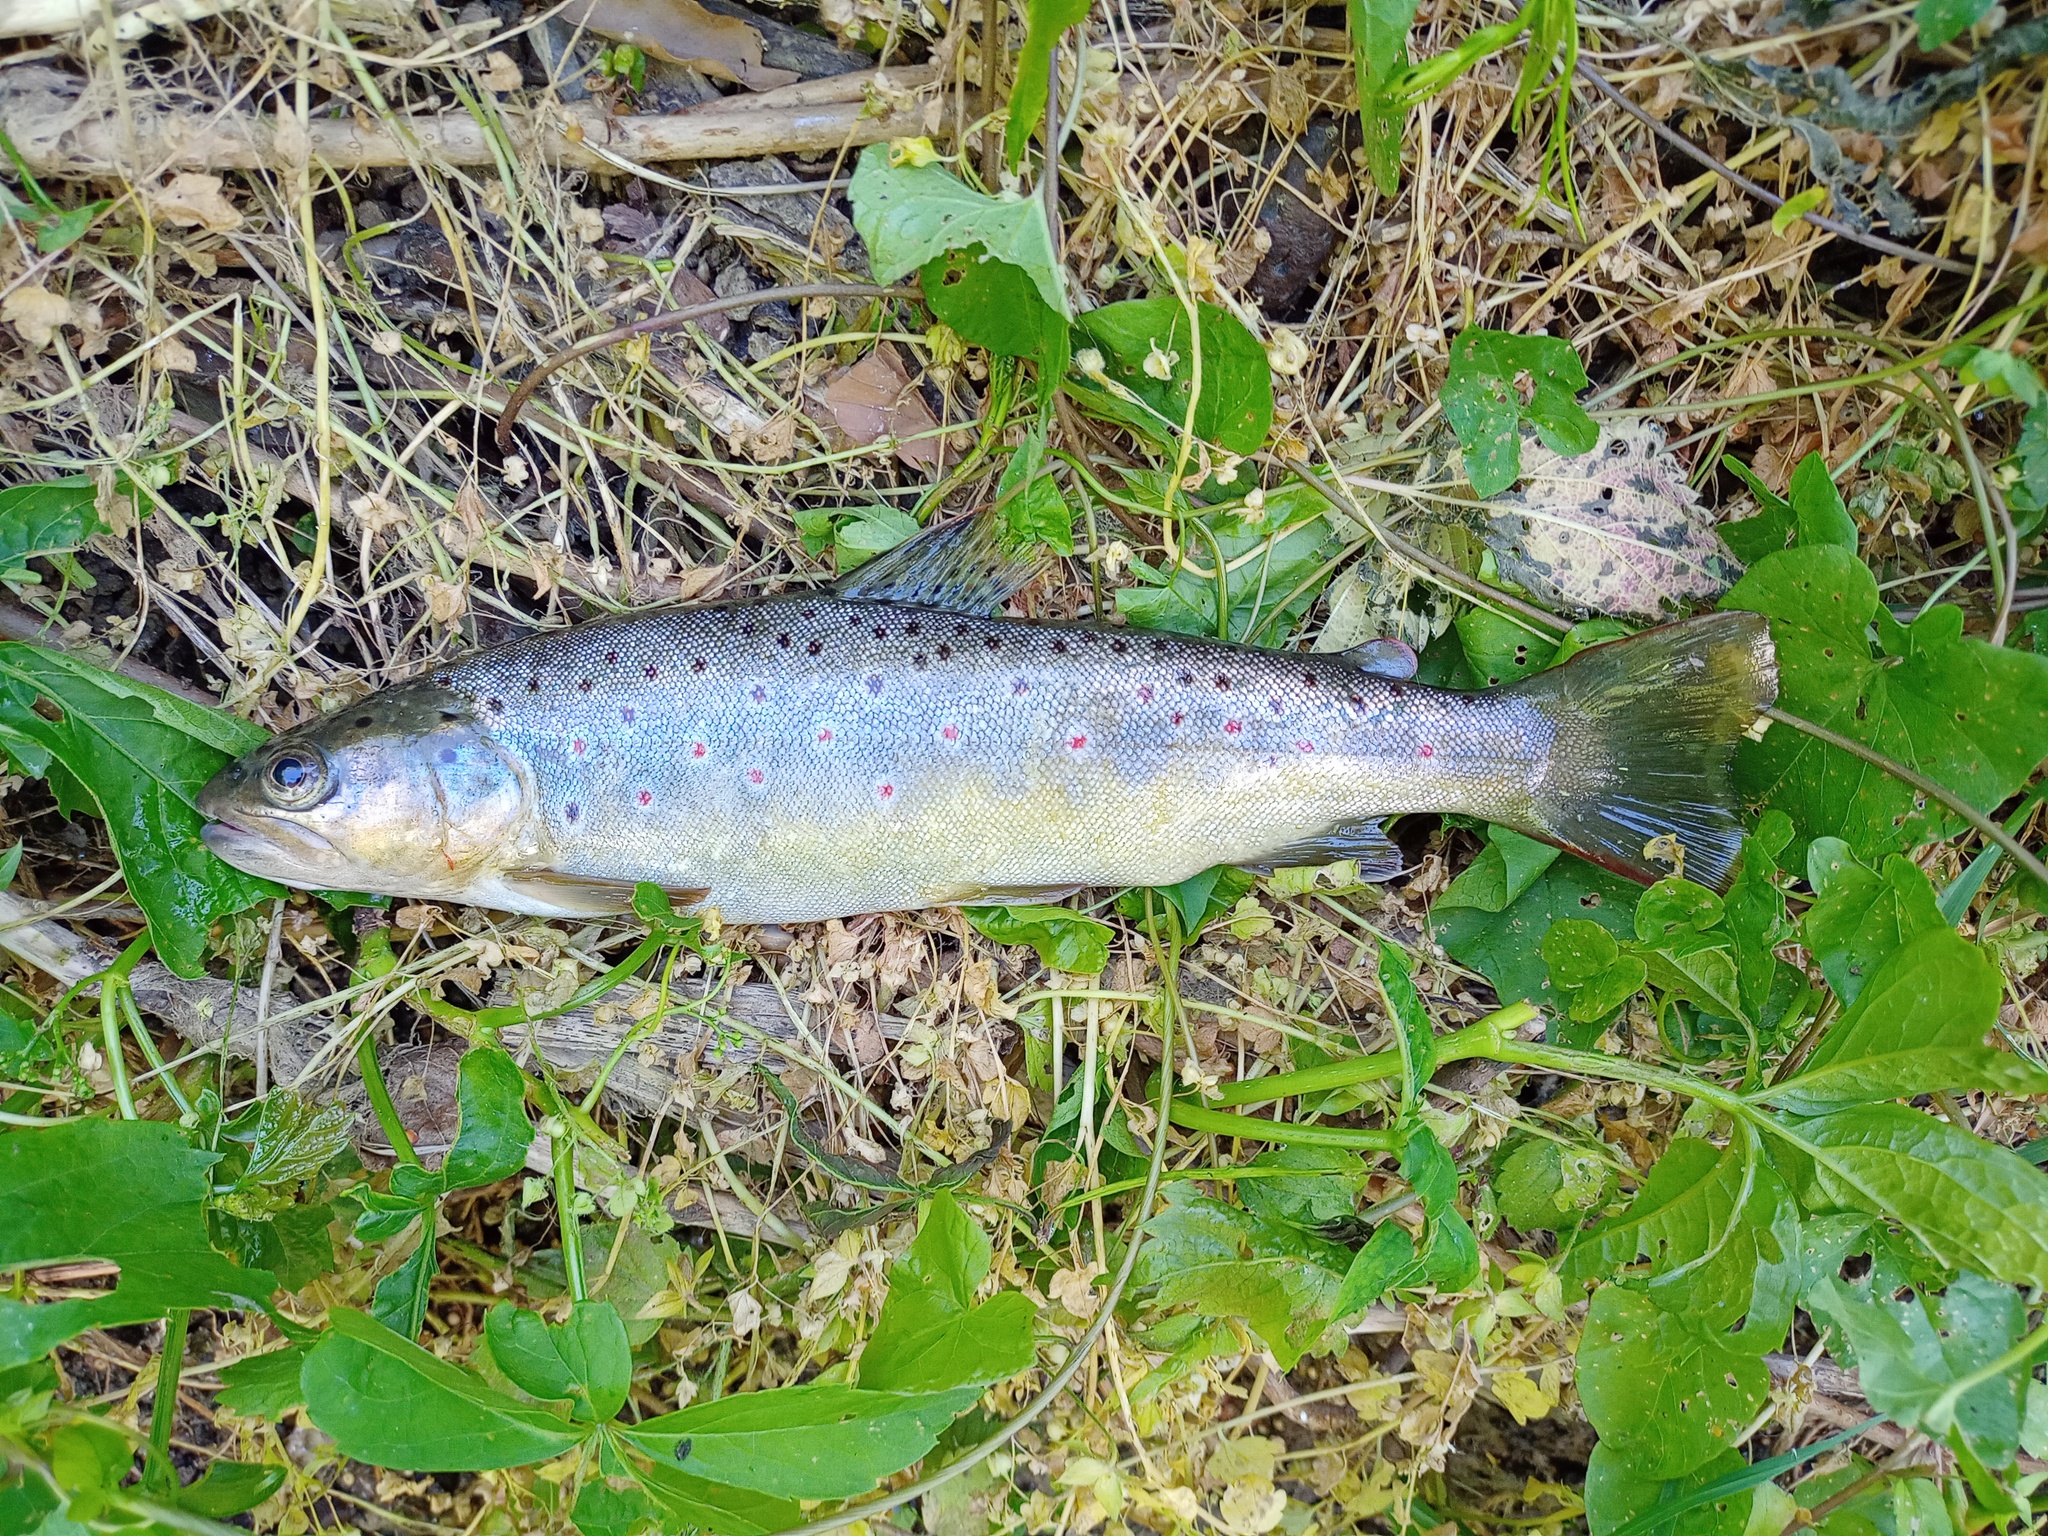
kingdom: Animalia
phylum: Chordata
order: Salmoniformes
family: Salmonidae
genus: Salmo
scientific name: Salmo trutta
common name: Brown trout
